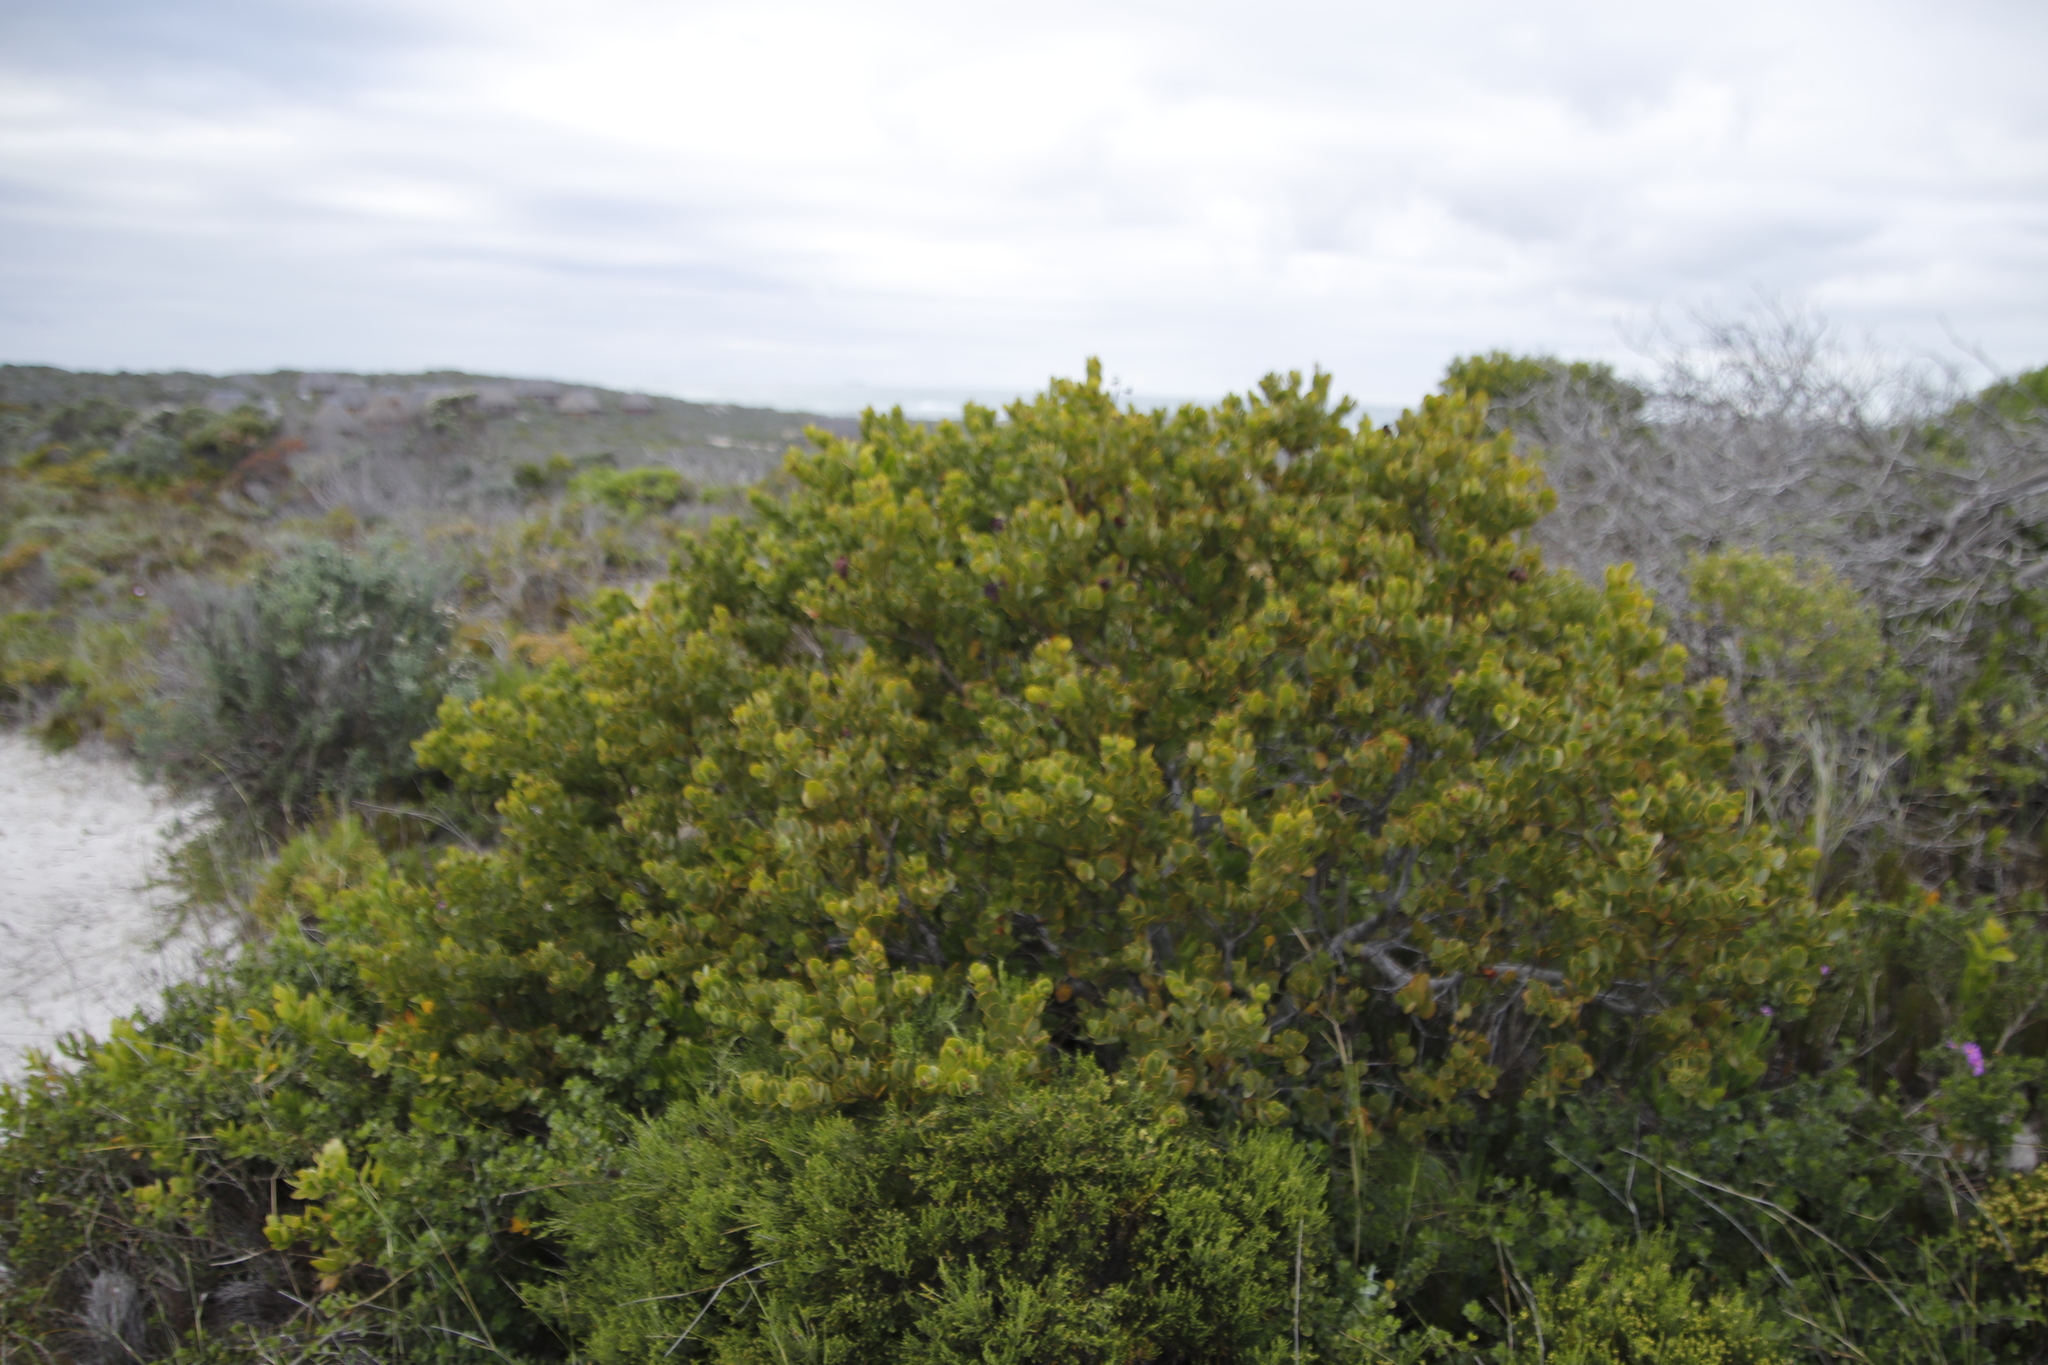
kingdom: Plantae
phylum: Tracheophyta
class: Magnoliopsida
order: Santalales
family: Santalaceae
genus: Osyris
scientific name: Osyris compressa
